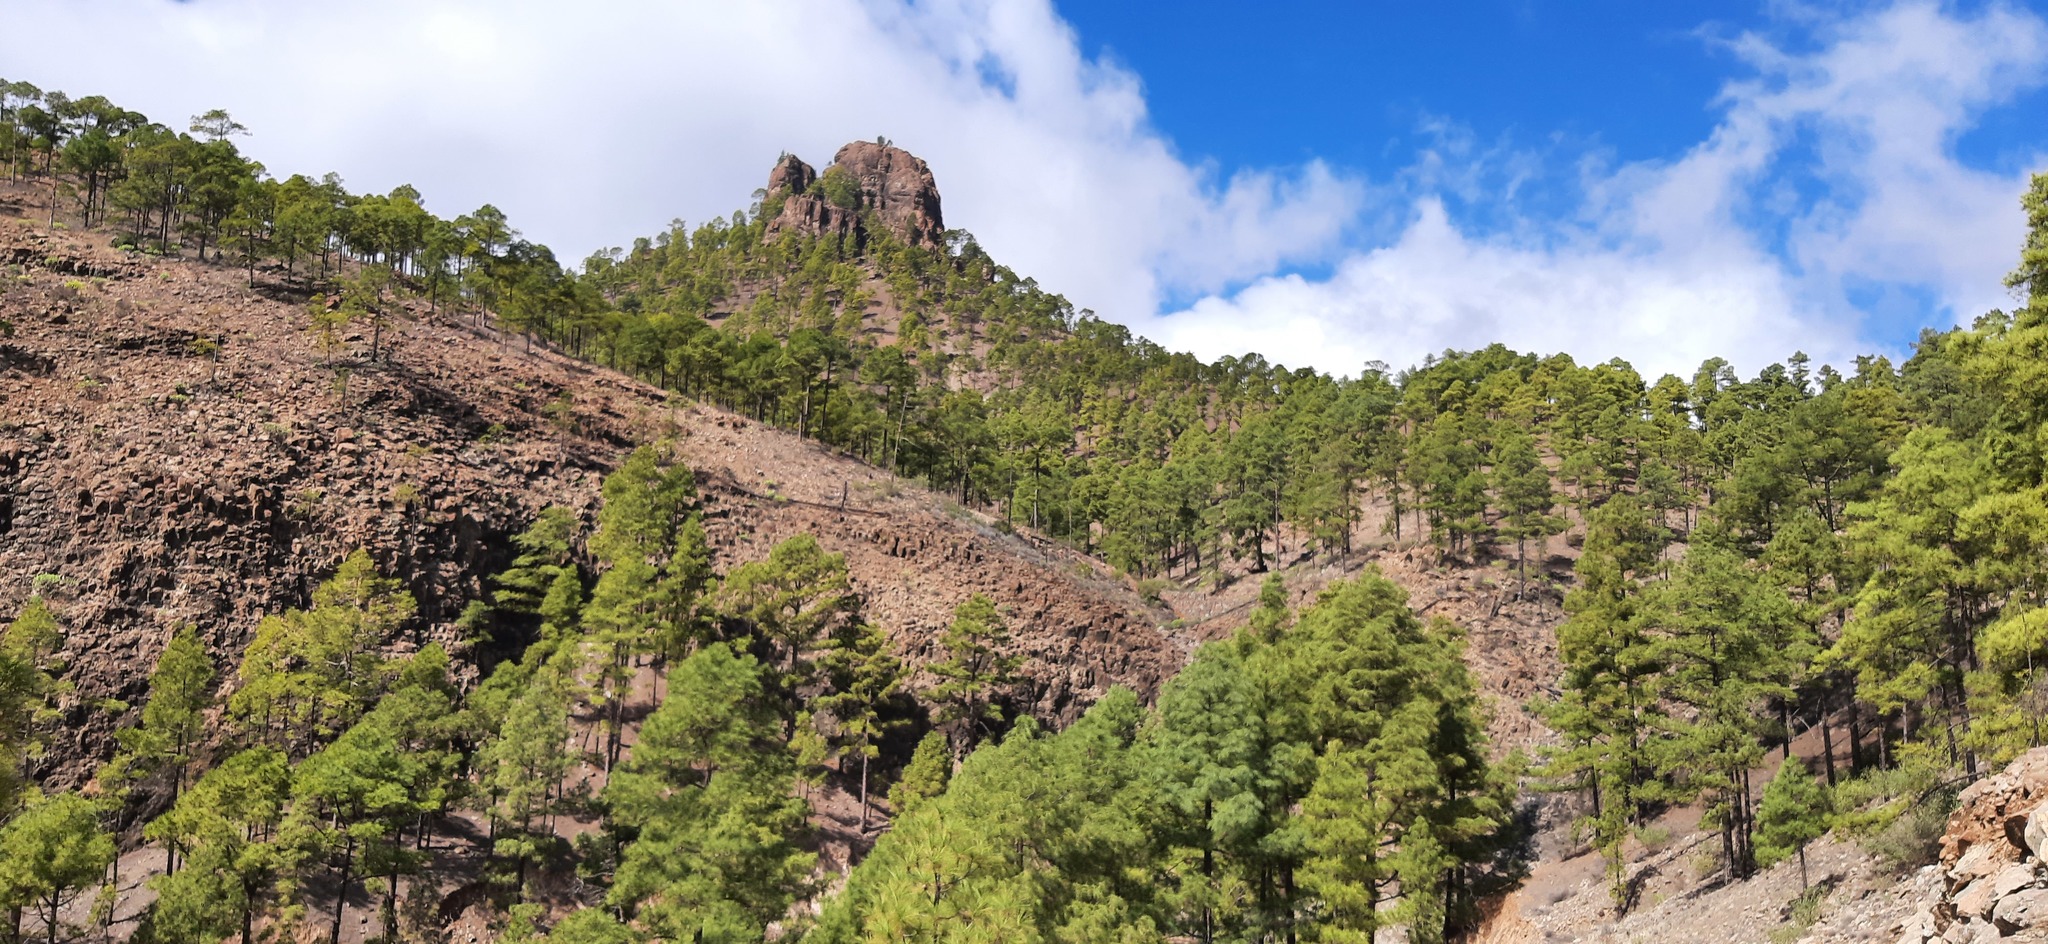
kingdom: Plantae
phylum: Tracheophyta
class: Pinopsida
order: Pinales
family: Pinaceae
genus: Pinus
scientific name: Pinus canariensis
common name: Canary islands pine
